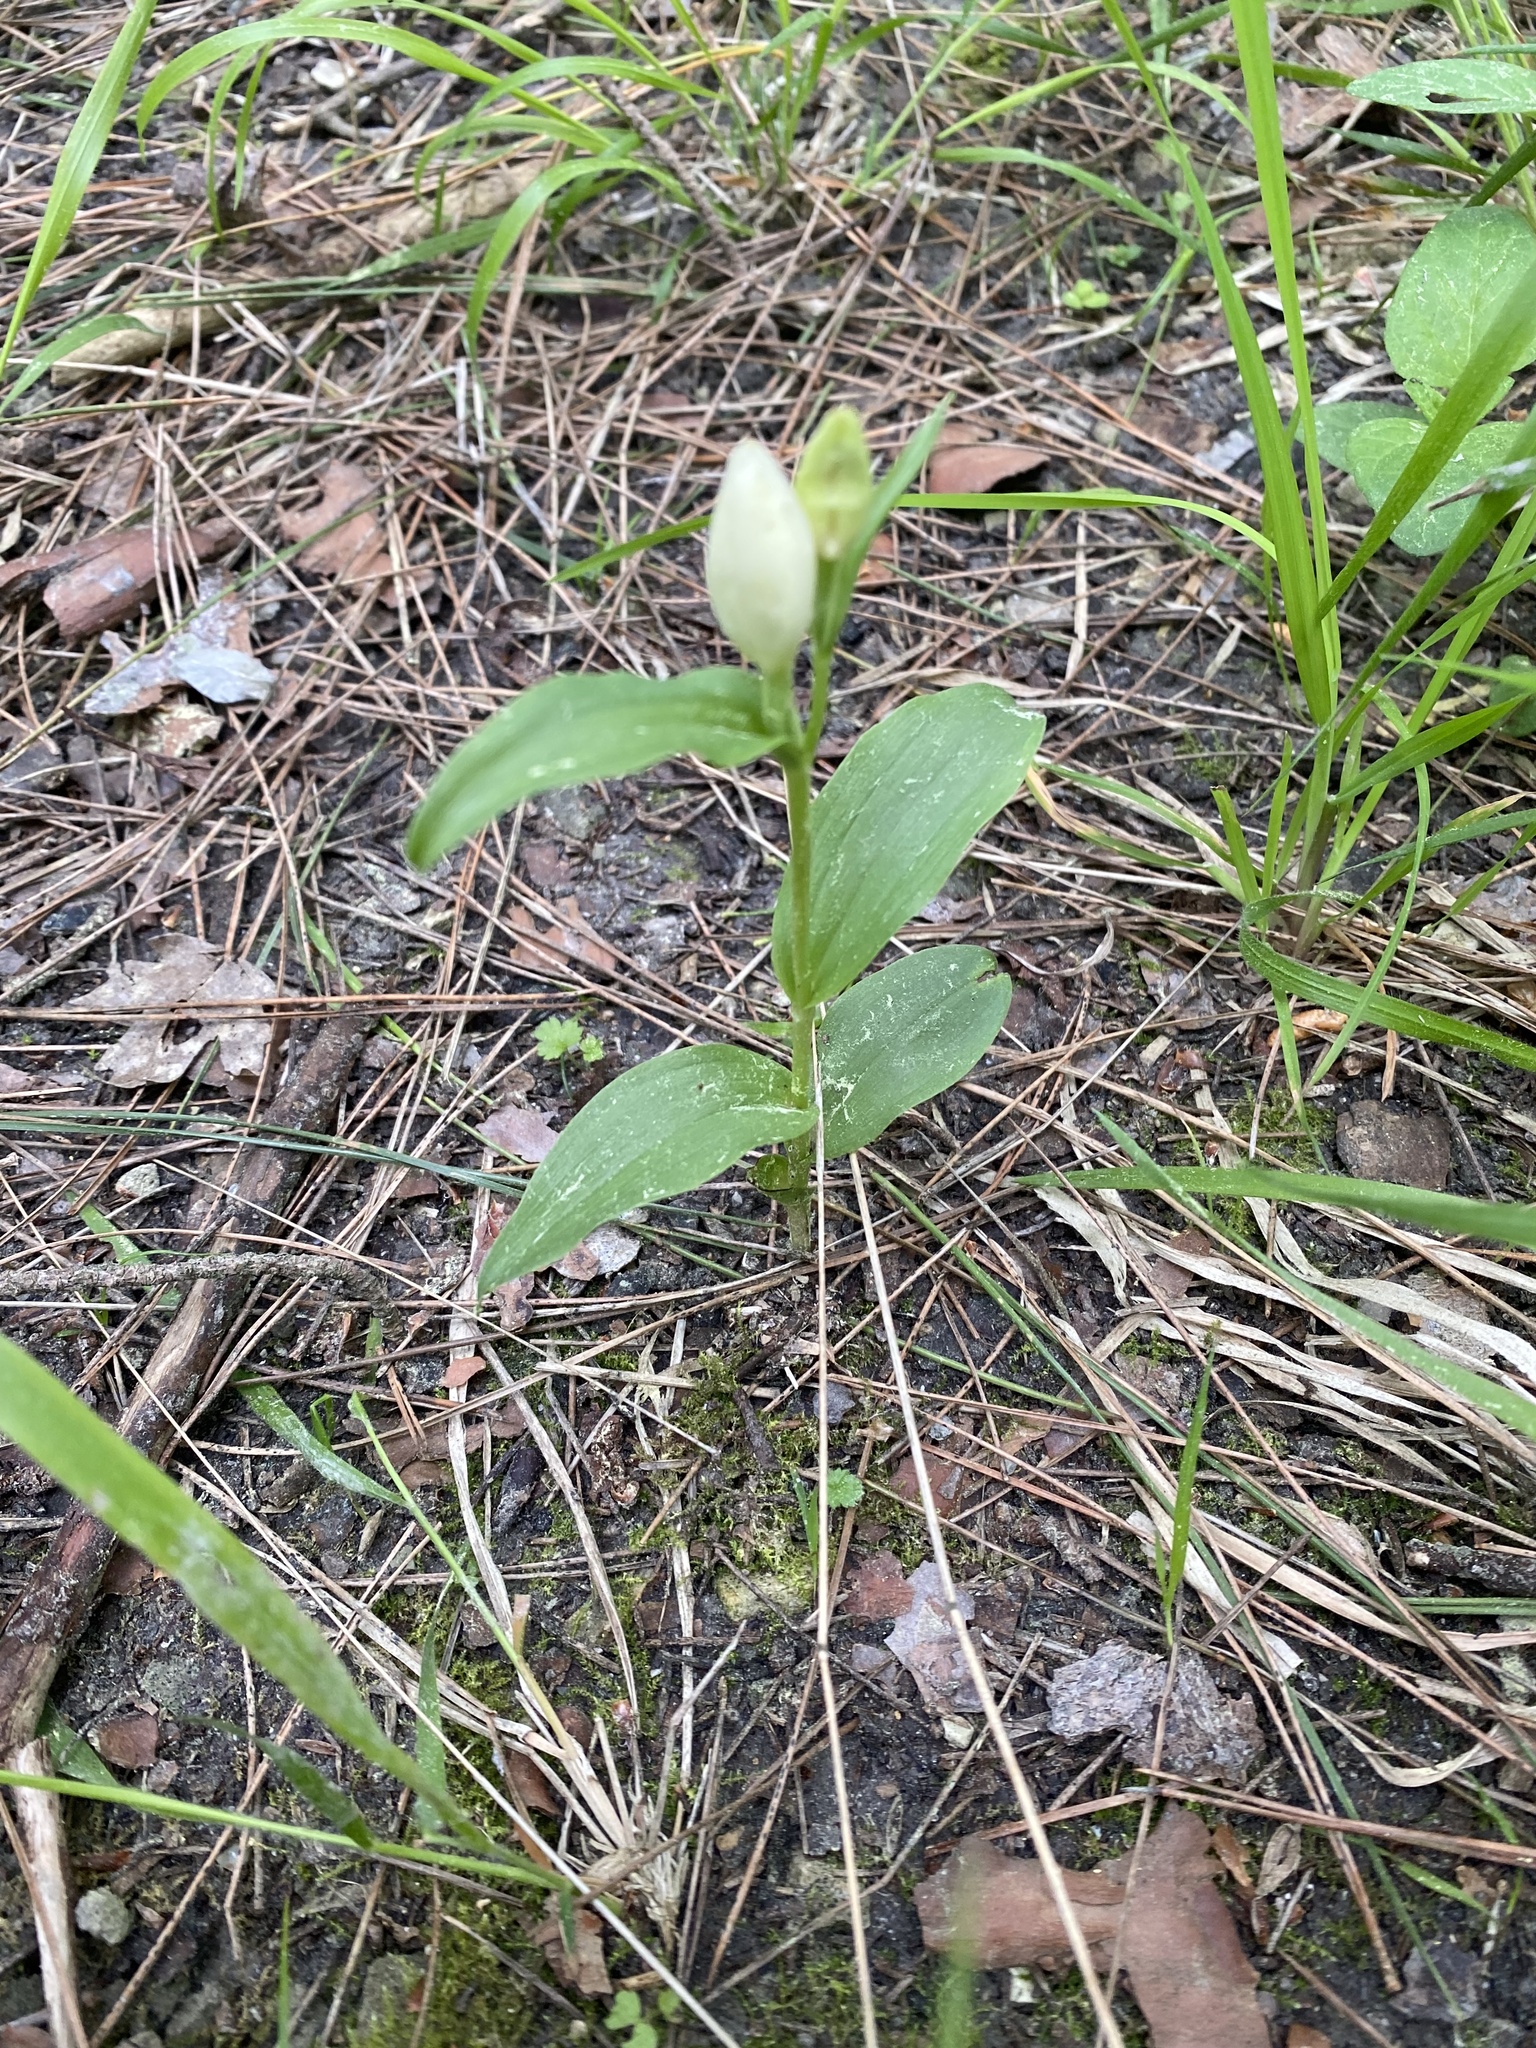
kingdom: Plantae
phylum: Tracheophyta
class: Liliopsida
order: Asparagales
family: Orchidaceae
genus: Cephalanthera
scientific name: Cephalanthera damasonium
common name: White helleborine
